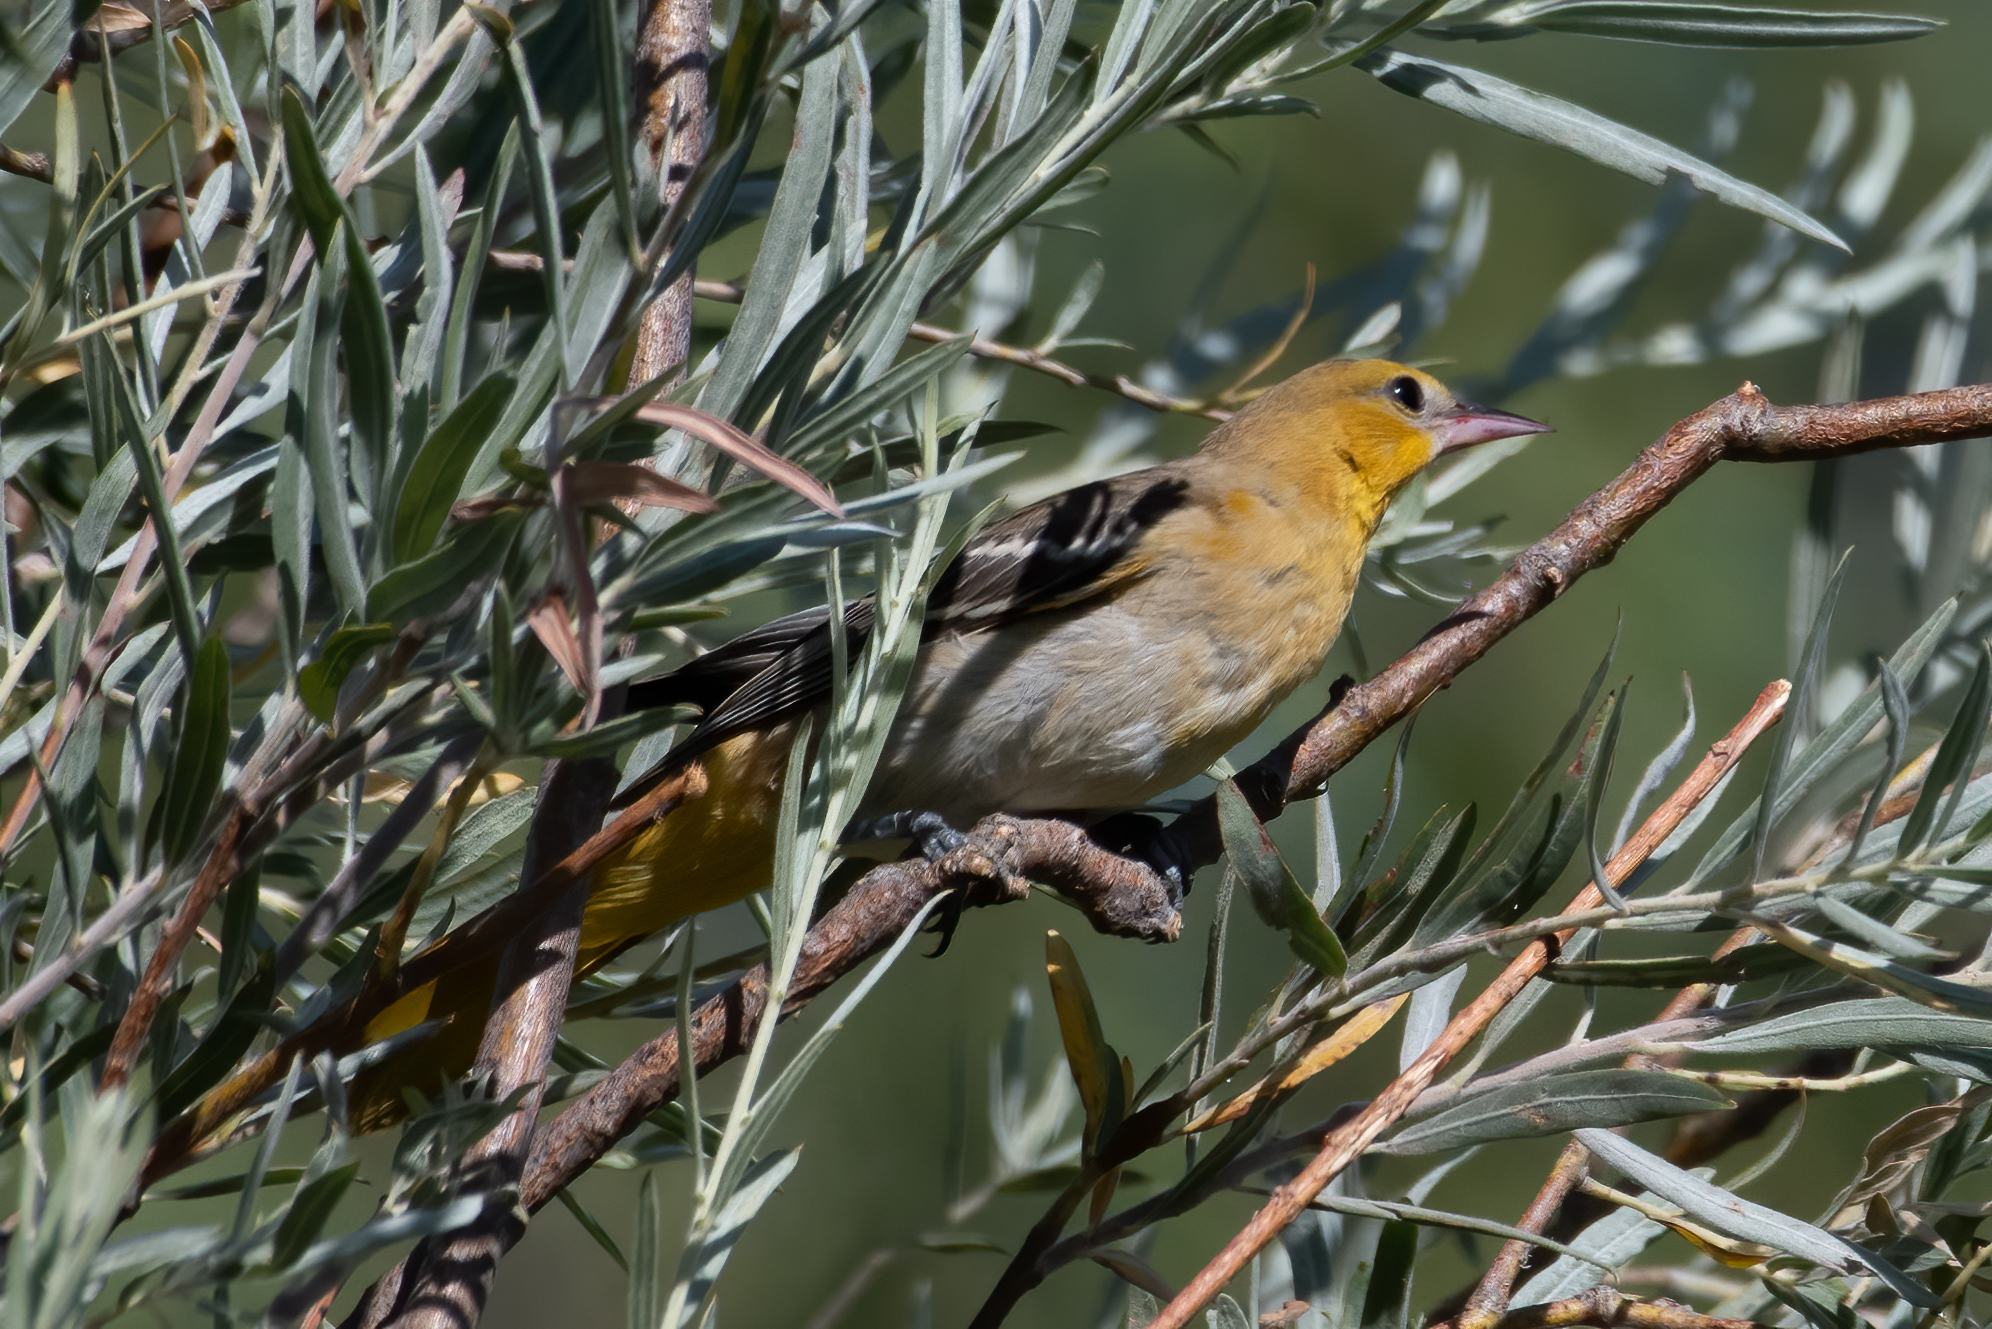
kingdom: Animalia
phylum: Chordata
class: Aves
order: Passeriformes
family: Icteridae
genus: Icterus
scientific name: Icterus bullockii
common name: Bullock's oriole
